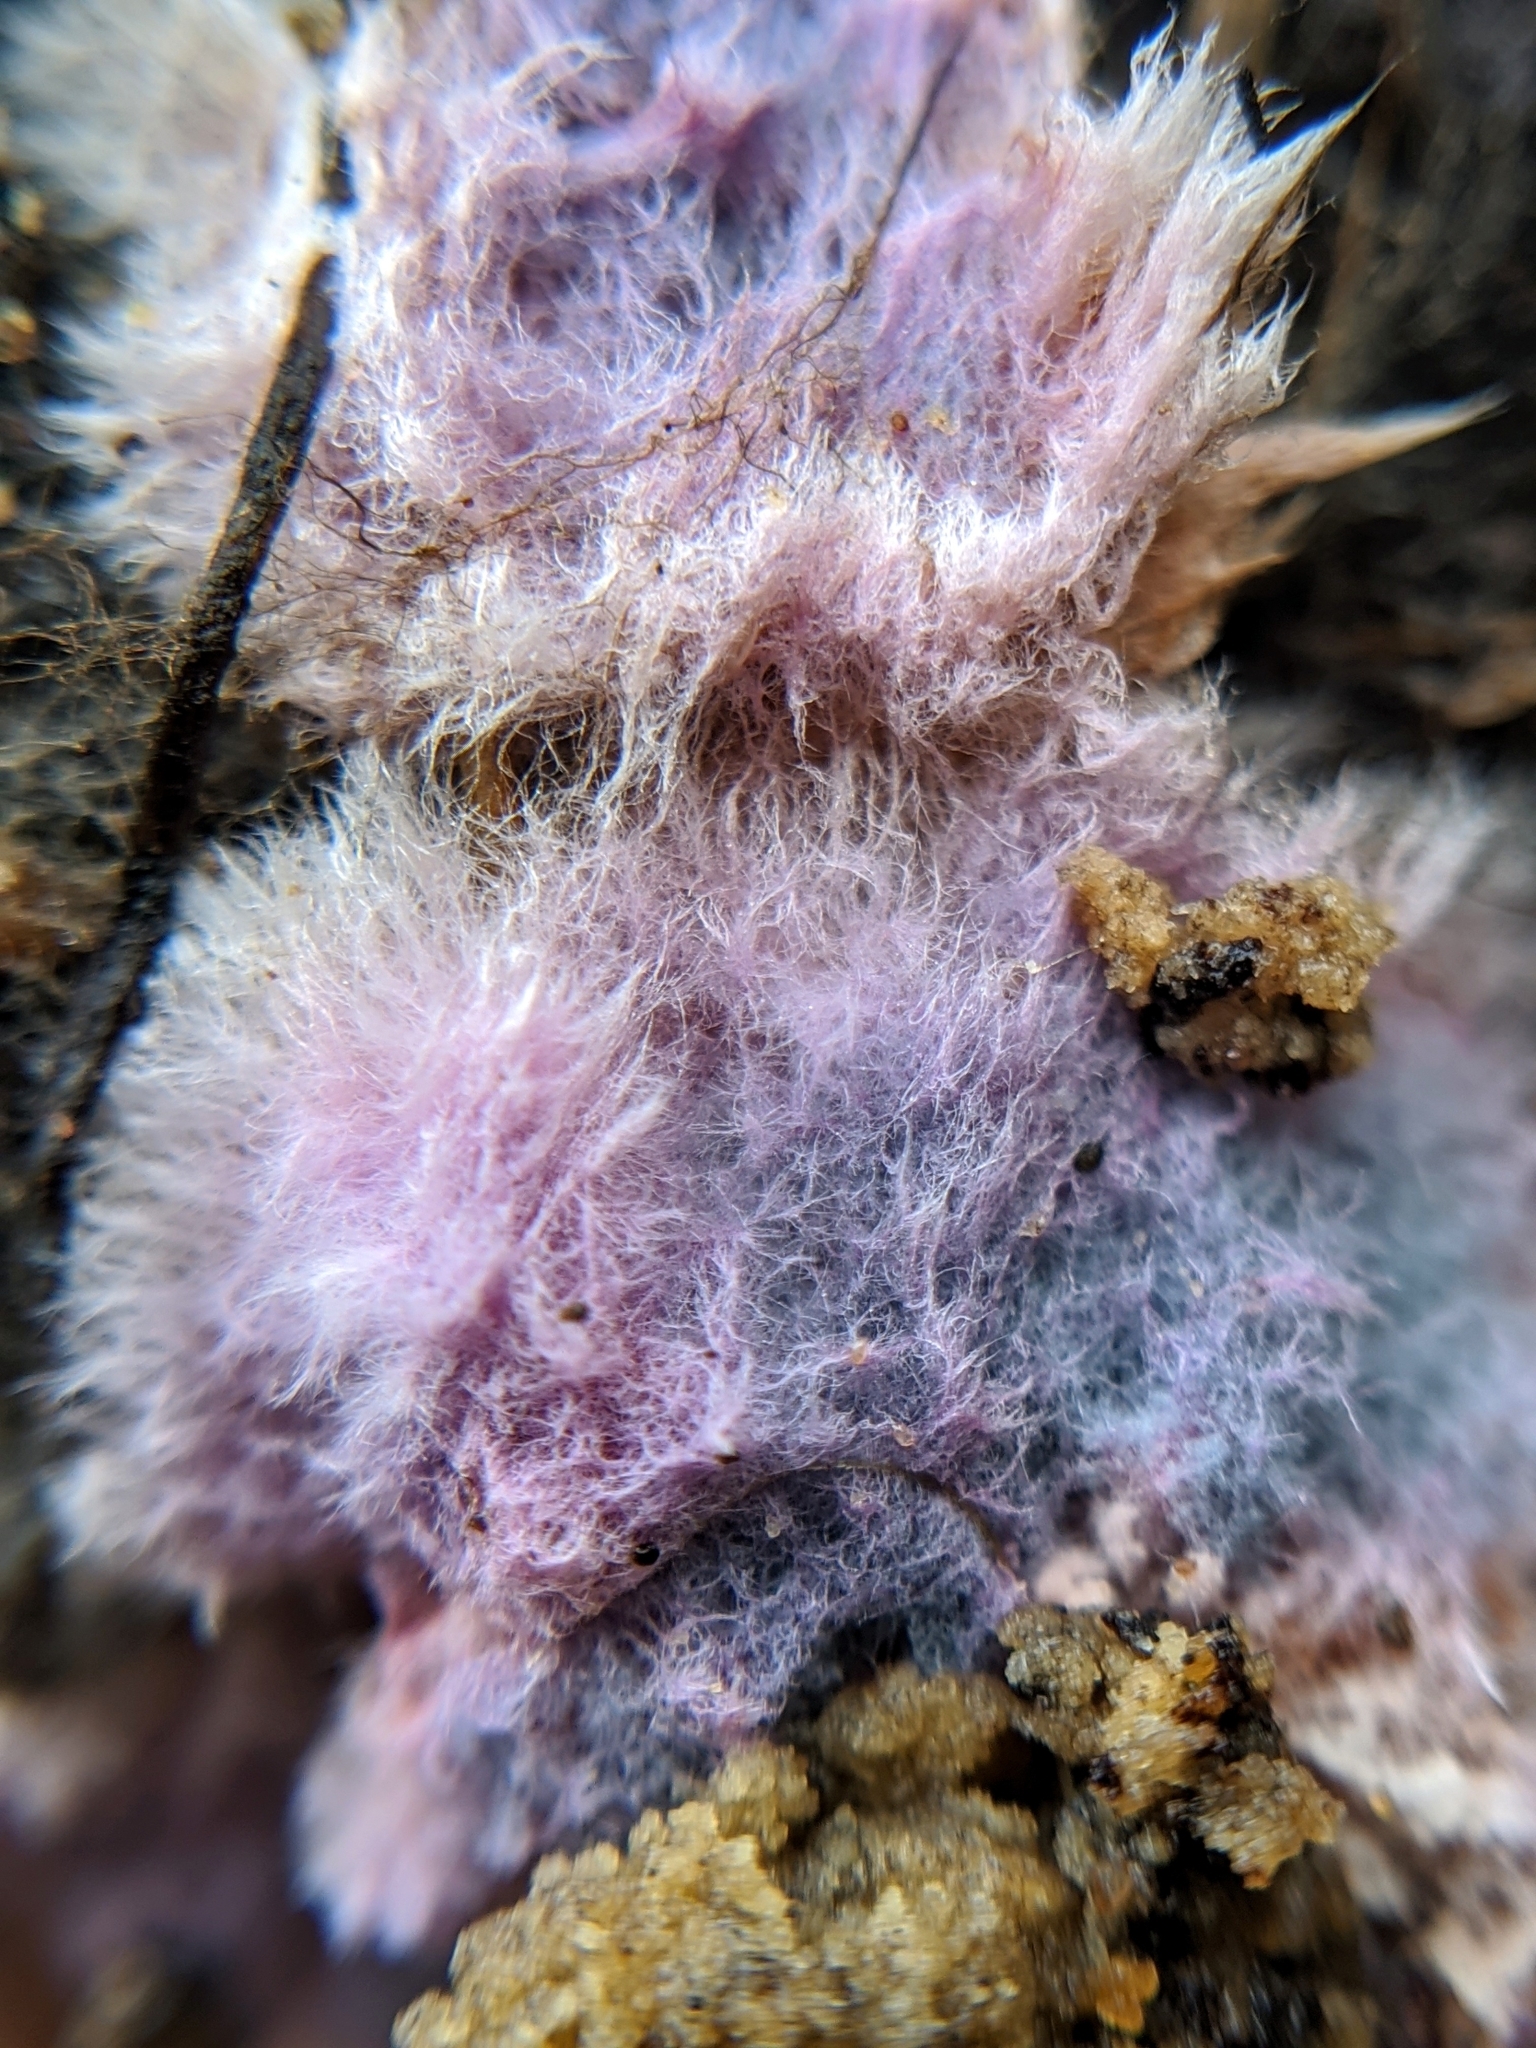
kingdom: Fungi
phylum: Basidiomycota
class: Agaricomycetes
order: Corticiales
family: Punctulariaceae
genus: Punctularia
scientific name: Punctularia atropurpurascens
